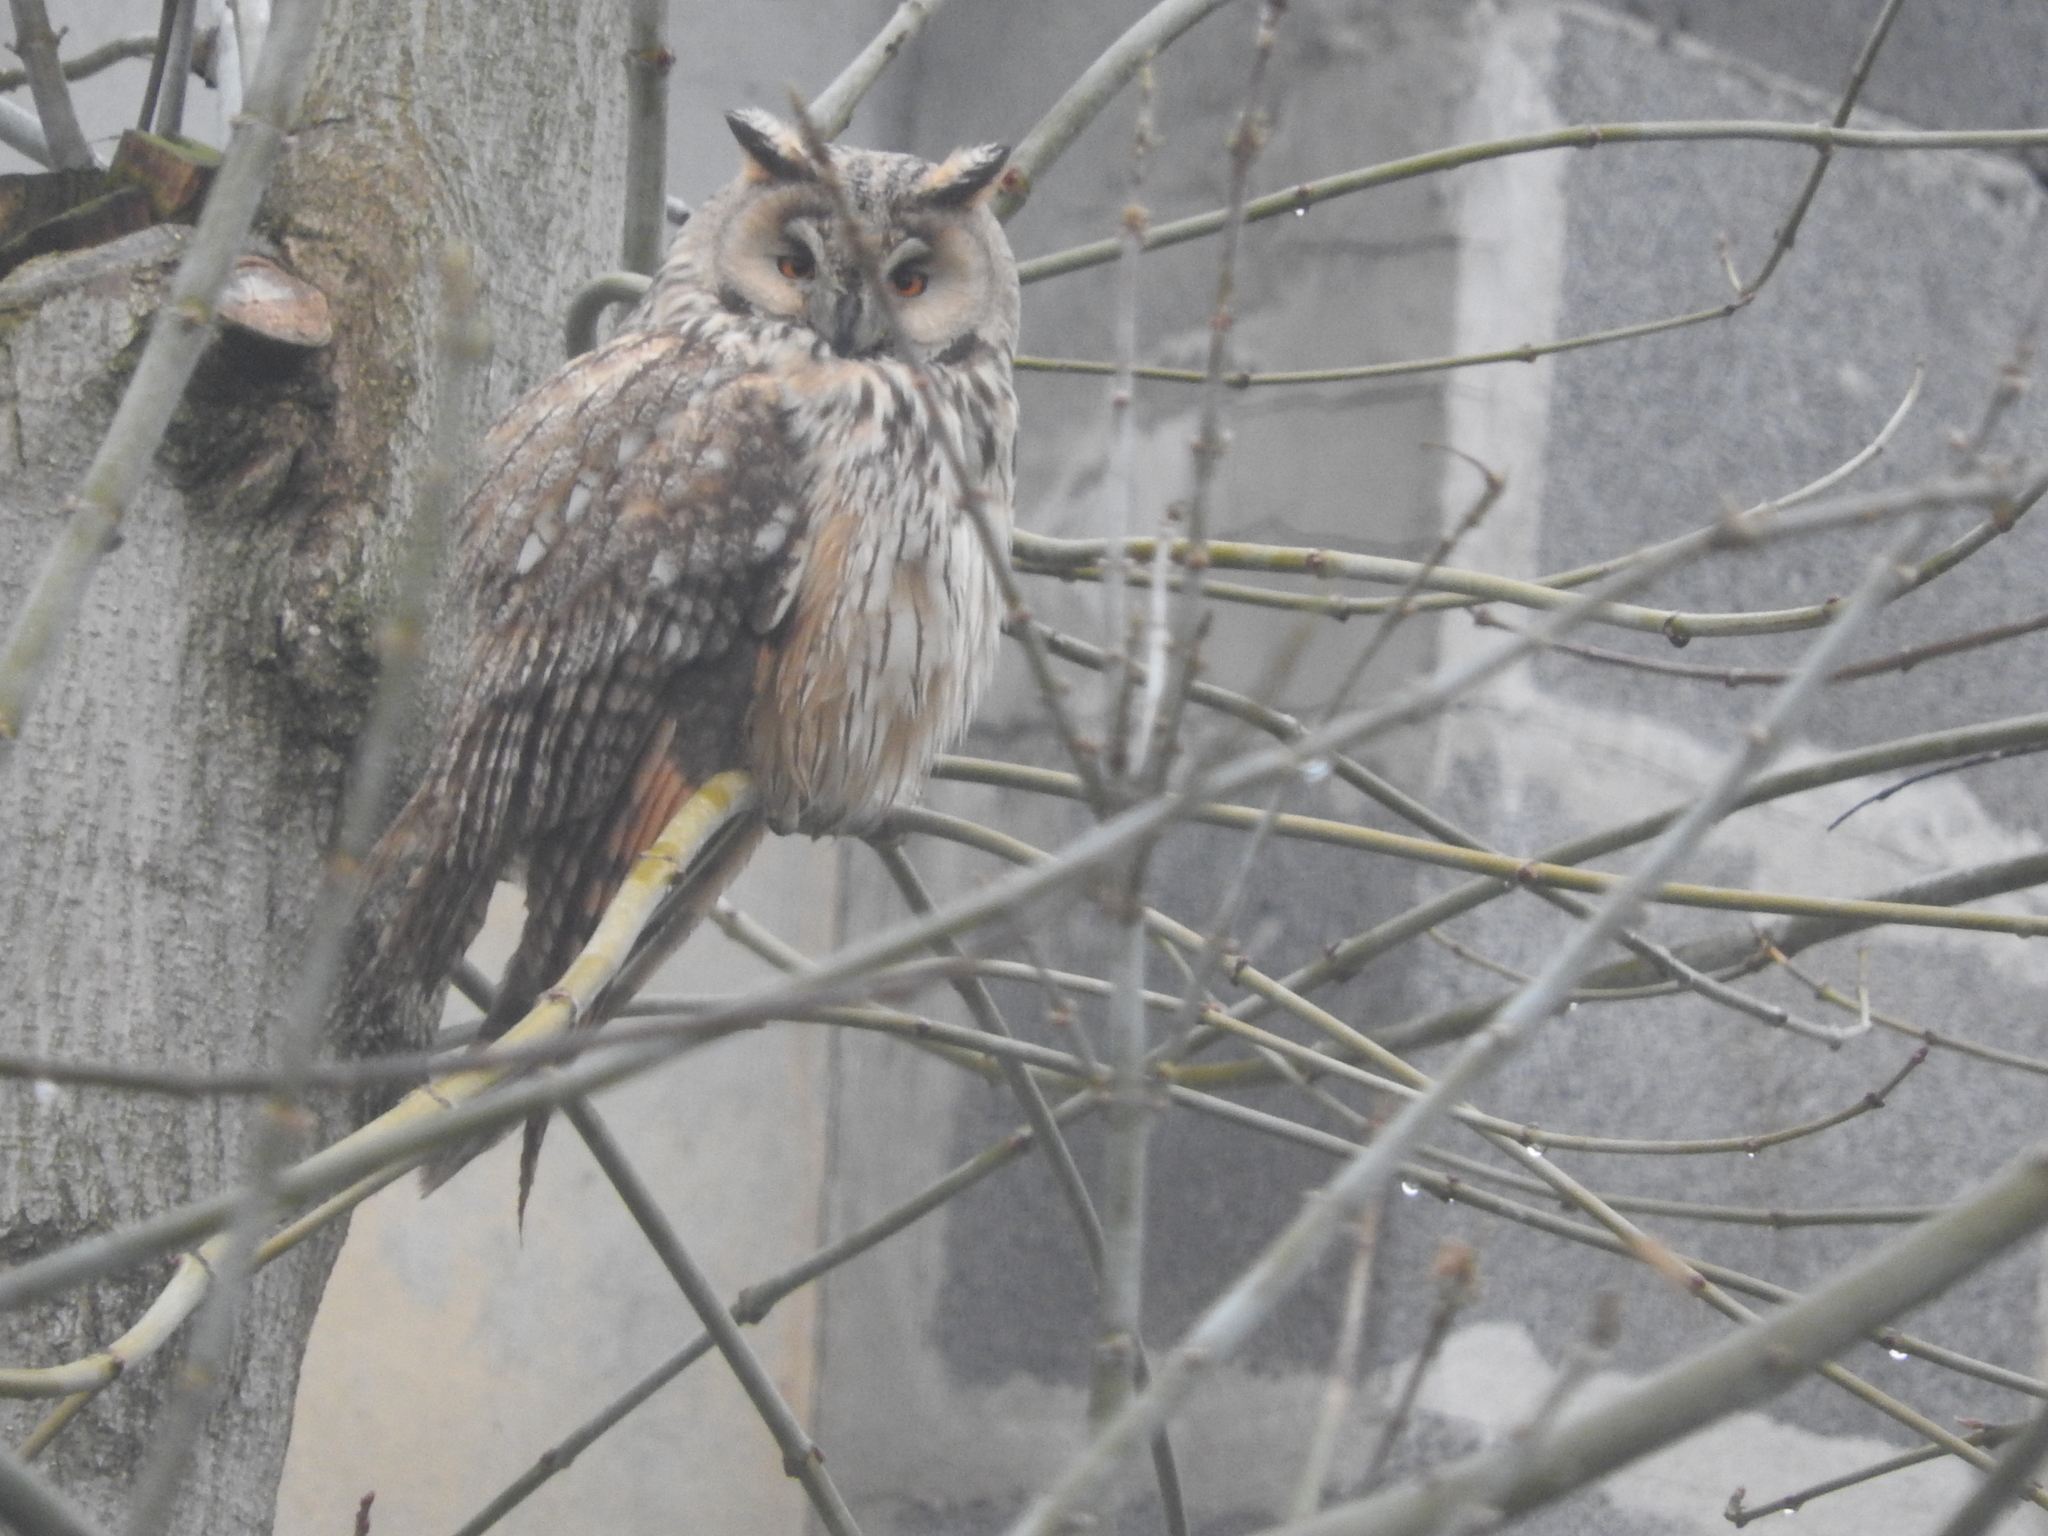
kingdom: Animalia
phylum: Chordata
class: Aves
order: Strigiformes
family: Strigidae
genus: Asio
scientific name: Asio otus
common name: Long-eared owl
